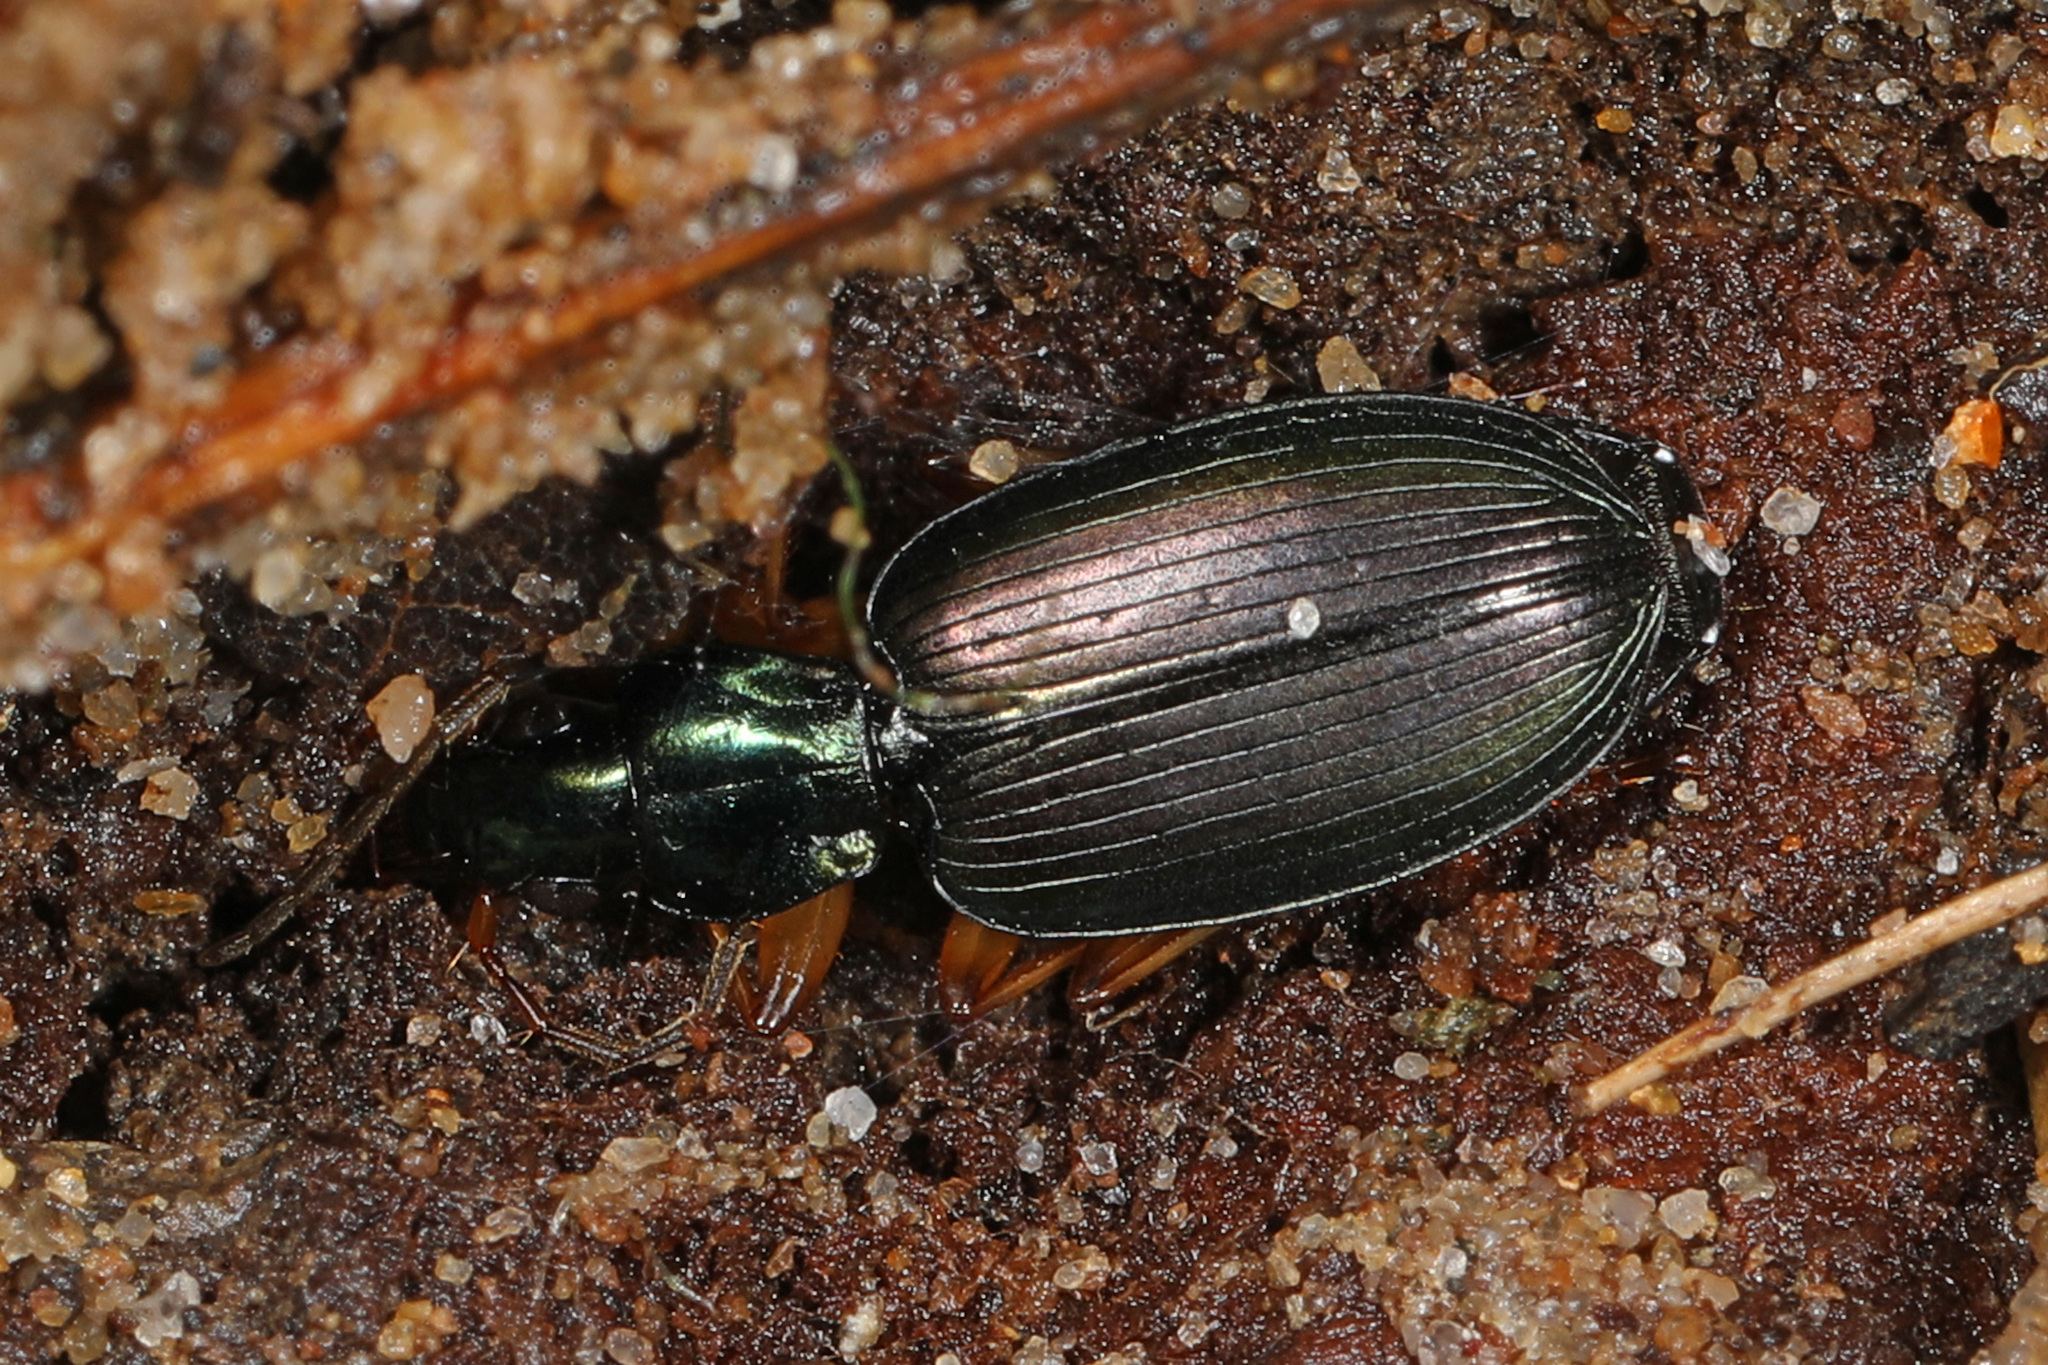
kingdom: Animalia
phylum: Arthropoda
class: Insecta
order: Coleoptera
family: Carabidae
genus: Agonum
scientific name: Agonum extensicolle
